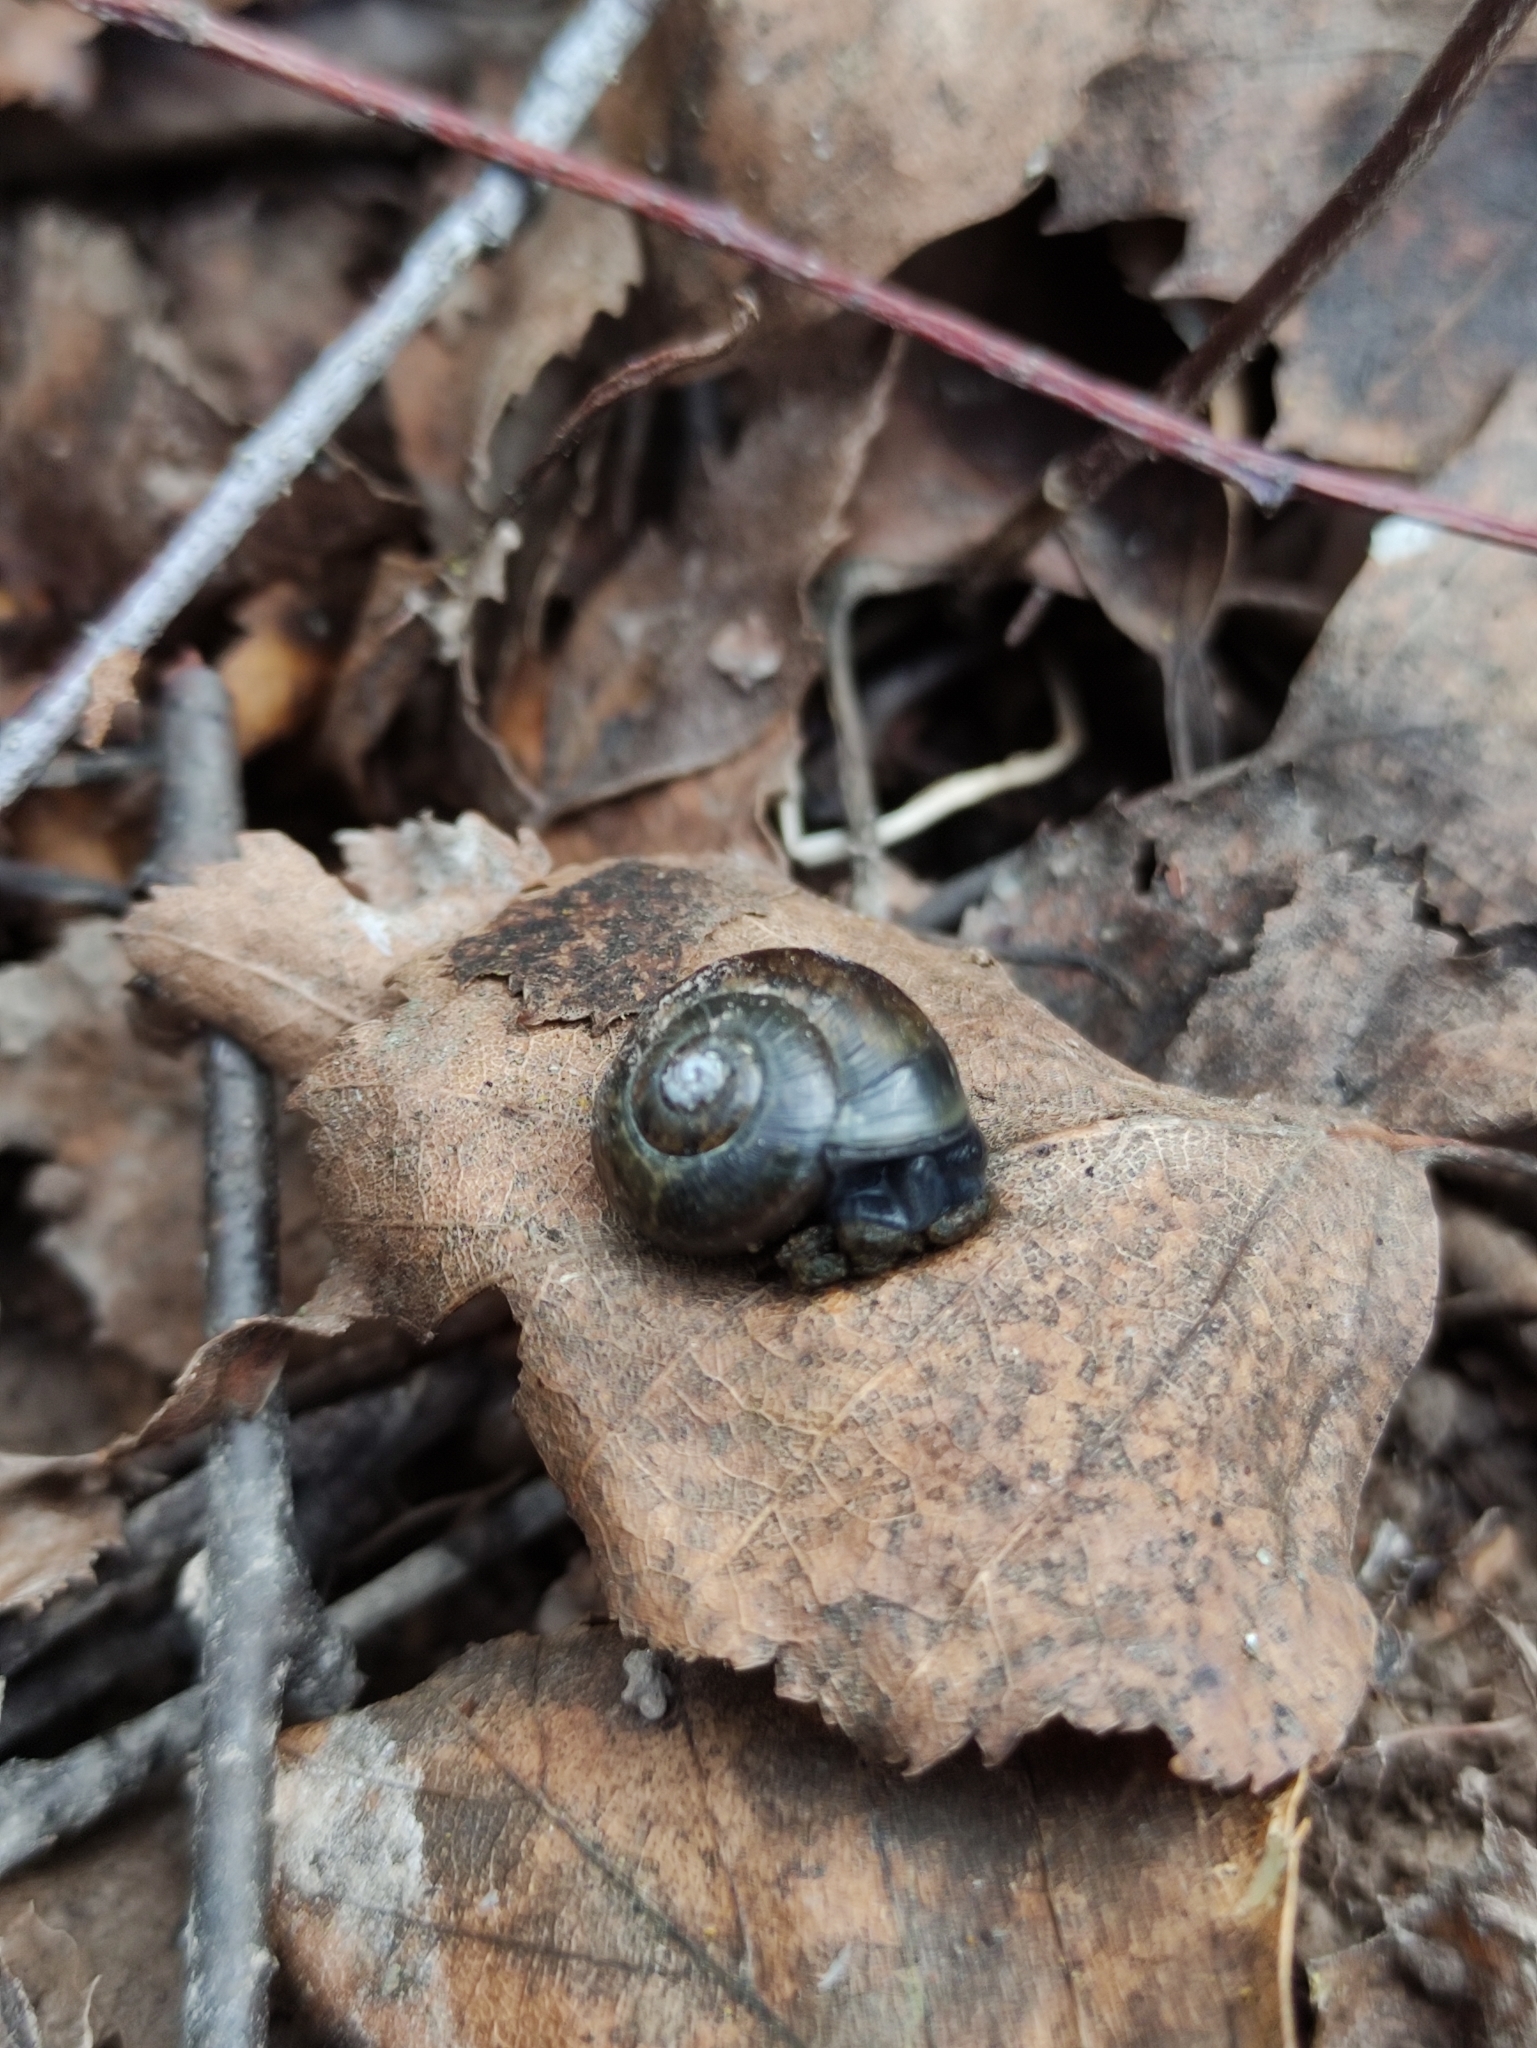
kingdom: Animalia
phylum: Mollusca
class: Gastropoda
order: Stylommatophora
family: Helicidae
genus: Arianta
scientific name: Arianta arbustorum
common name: Copse snail
